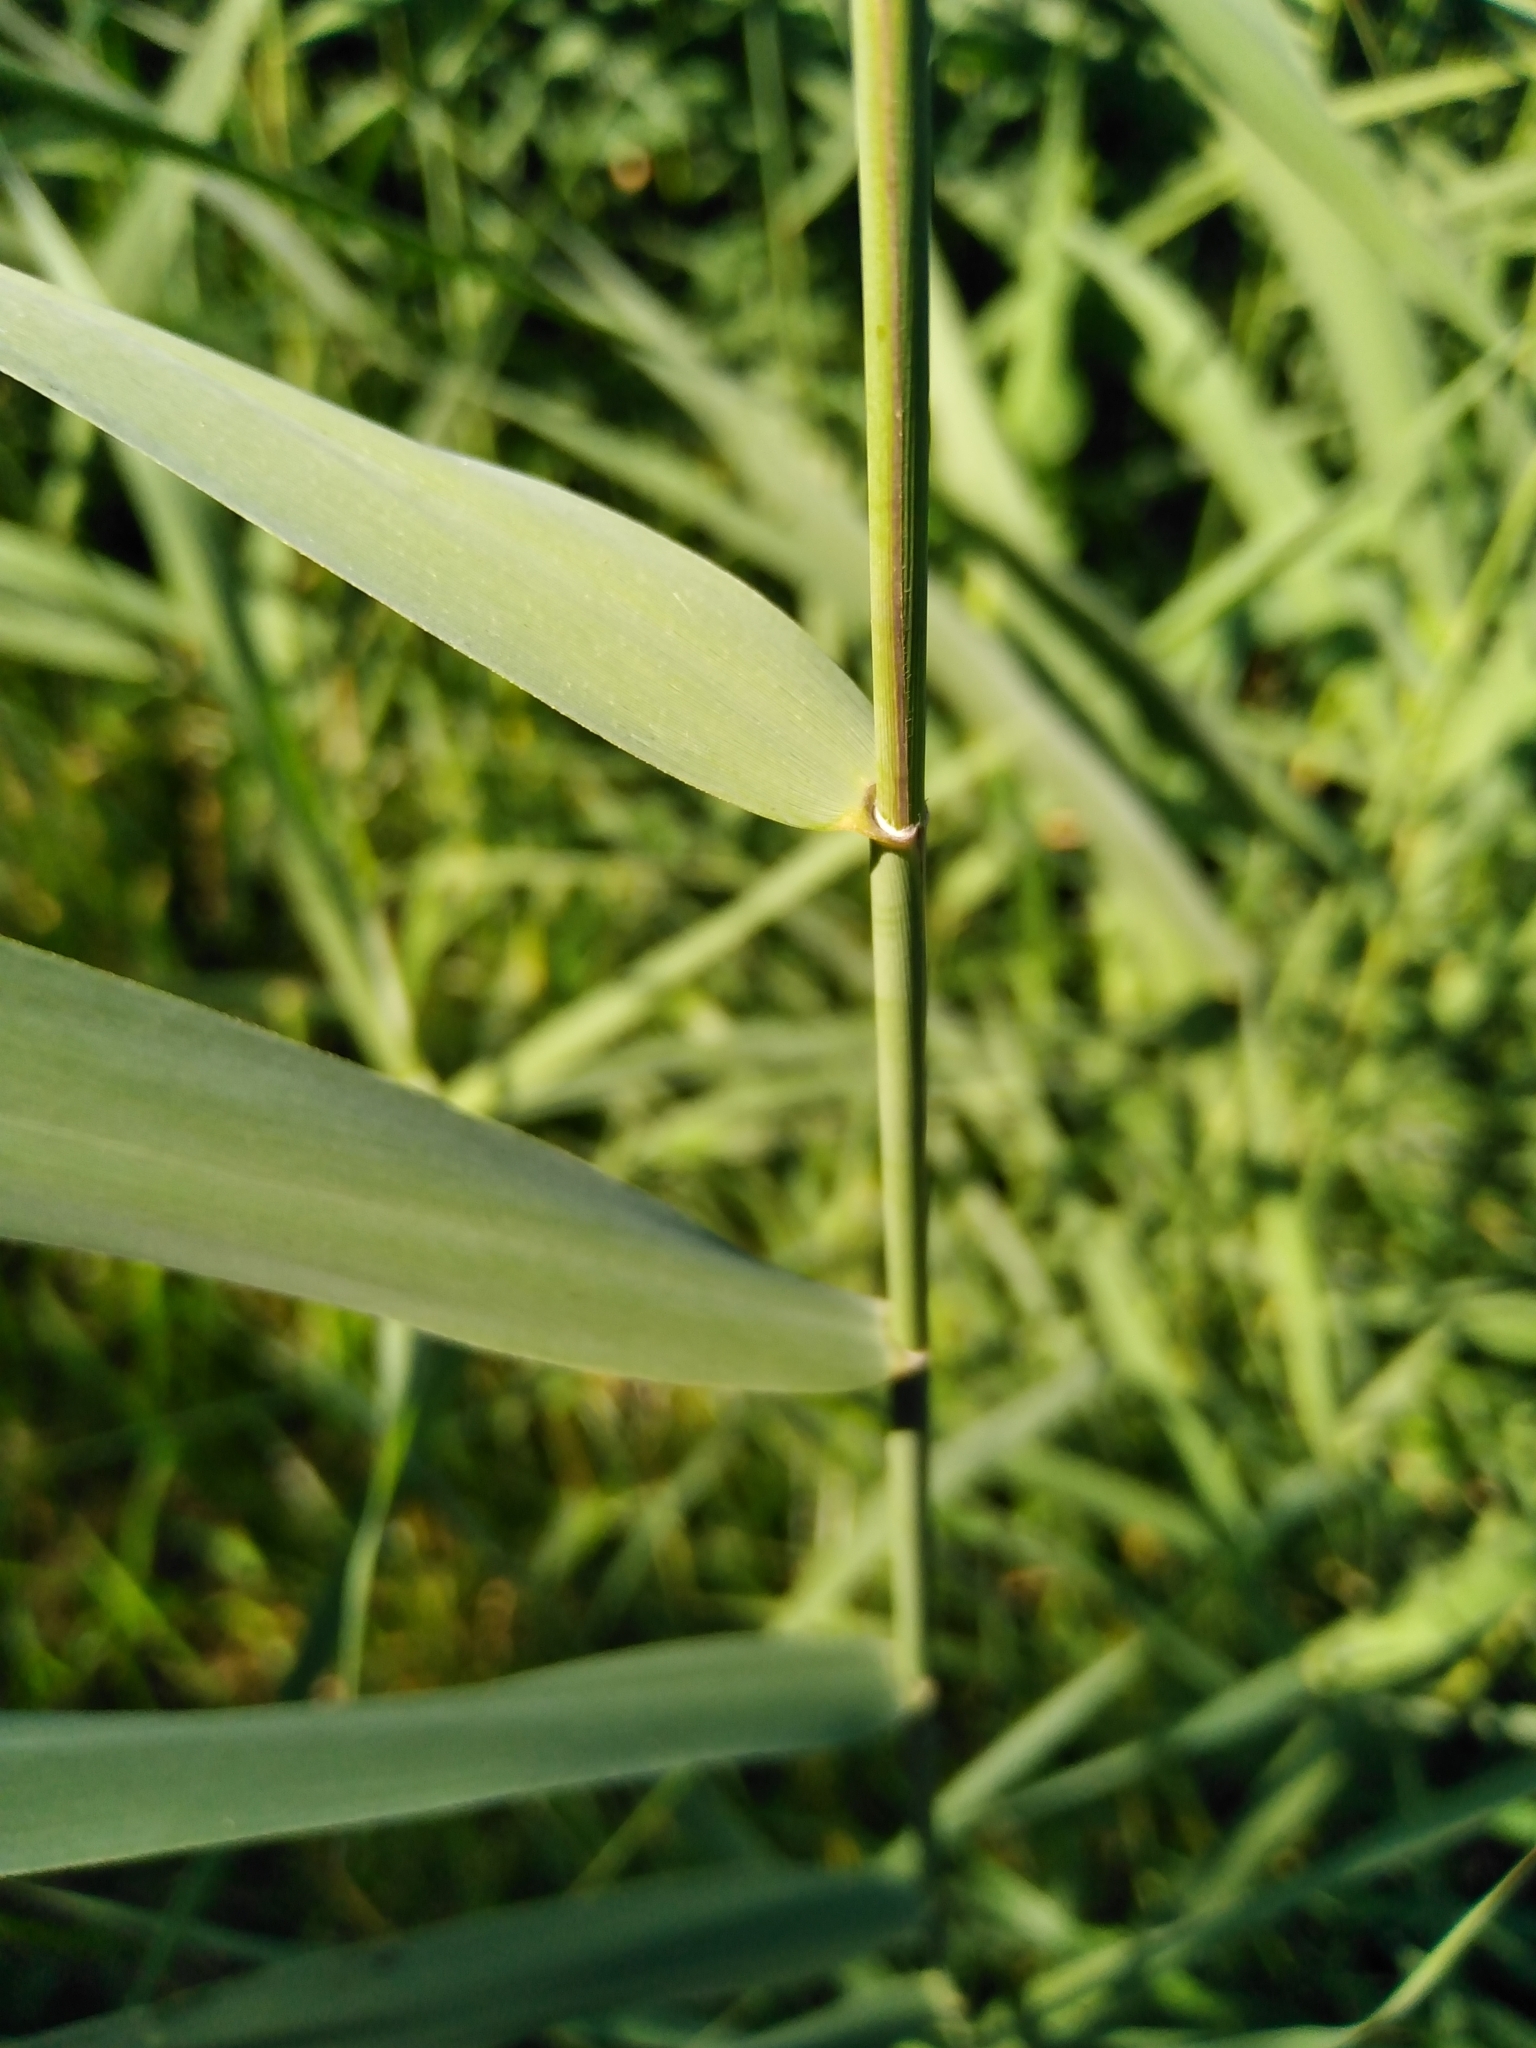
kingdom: Plantae
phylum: Tracheophyta
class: Liliopsida
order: Poales
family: Poaceae
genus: Phragmites
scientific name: Phragmites australis
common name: Common reed
